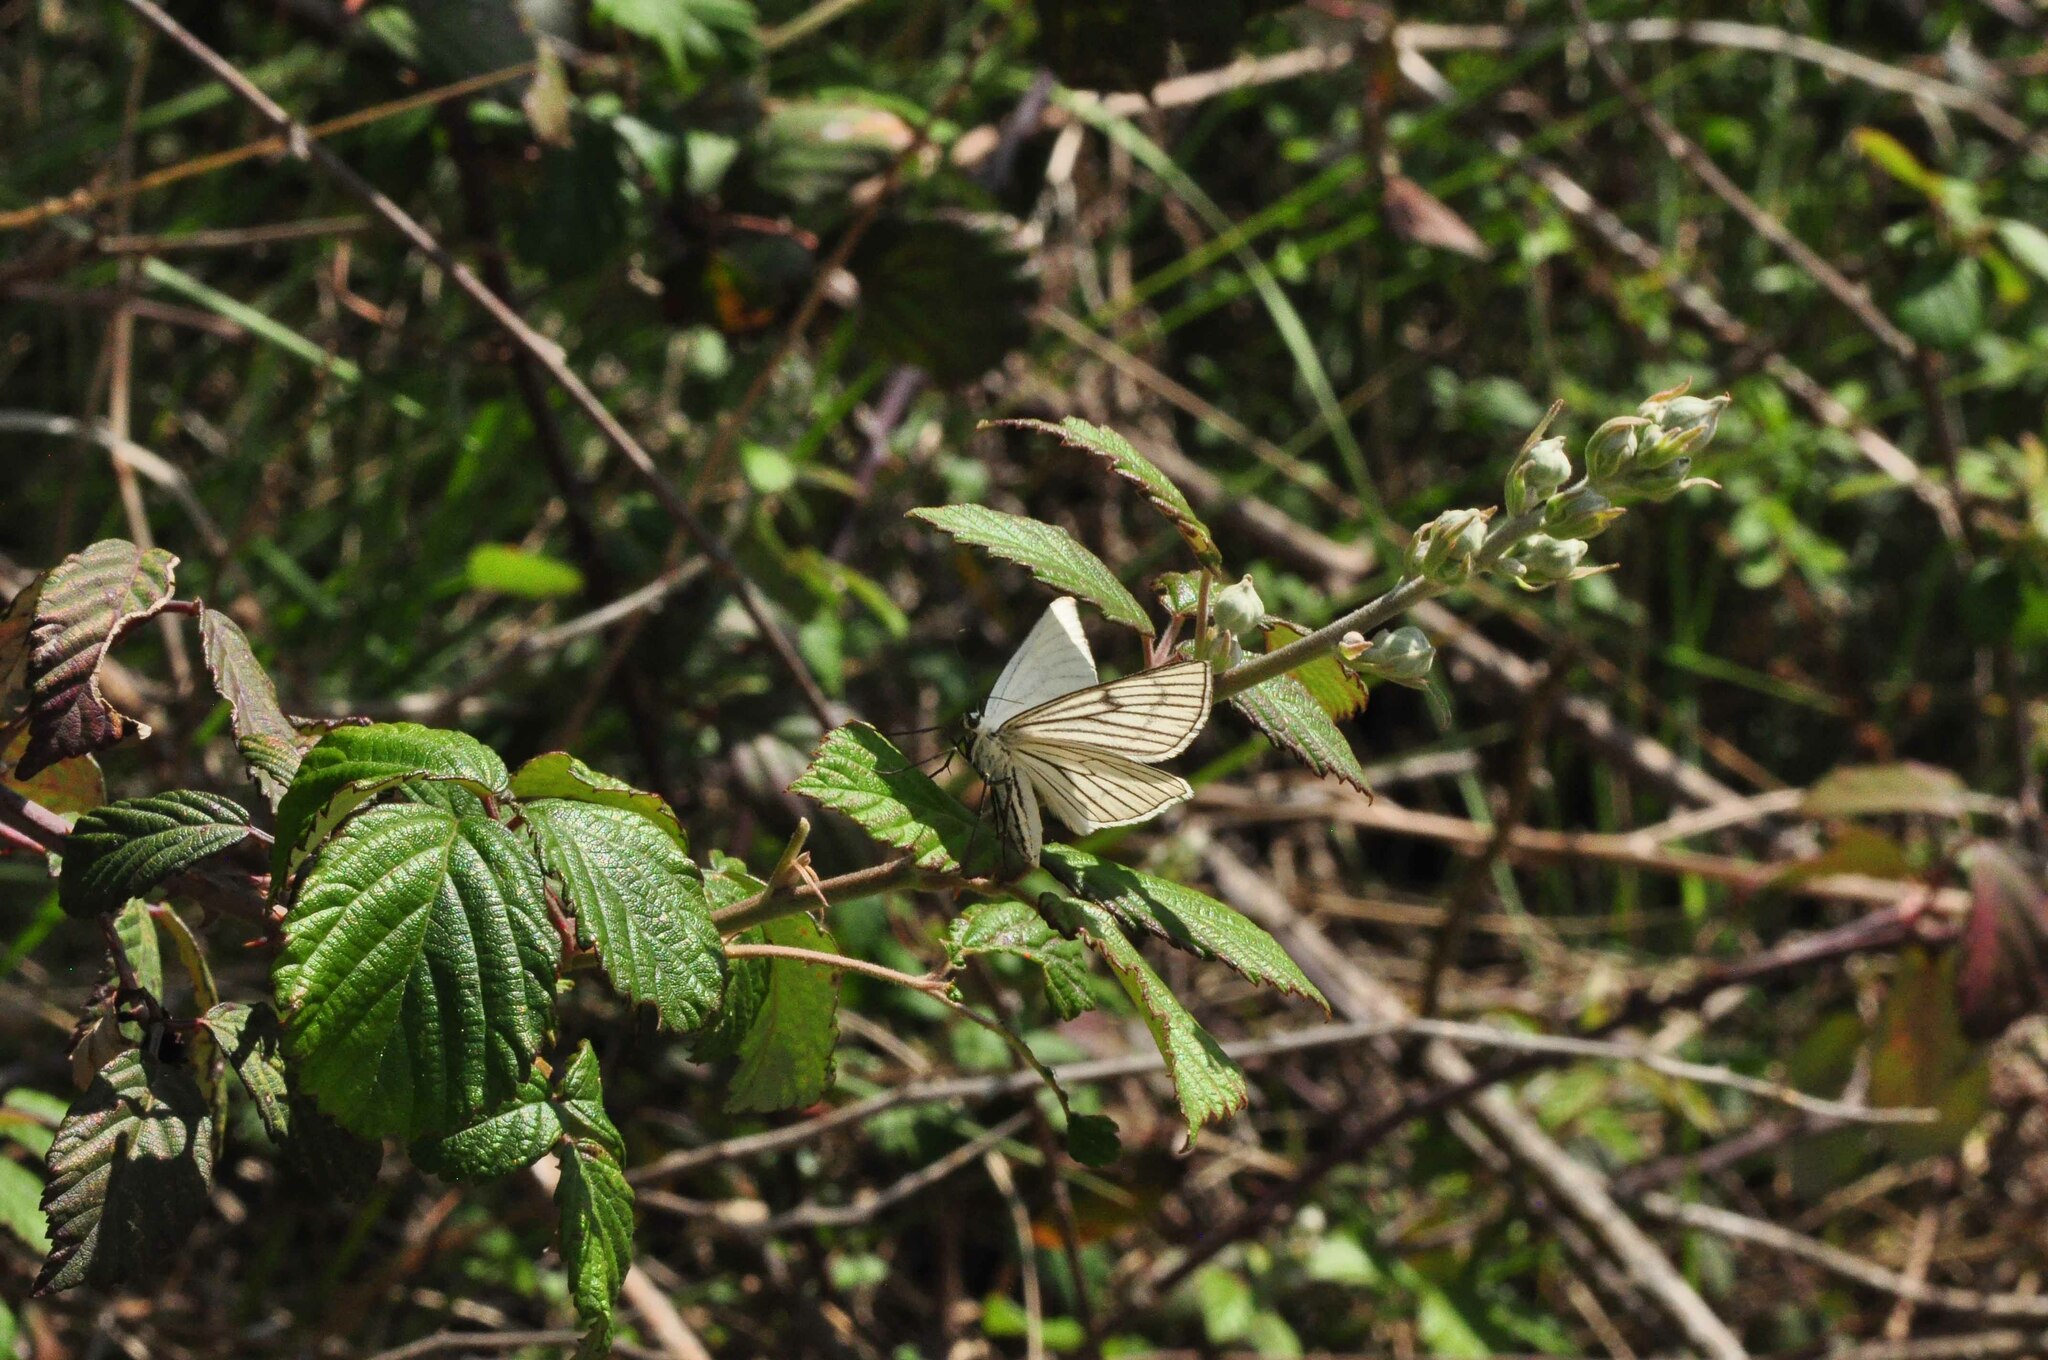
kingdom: Animalia
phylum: Arthropoda
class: Insecta
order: Lepidoptera
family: Geometridae
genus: Siona
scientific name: Siona lineata
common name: Black-veined moth
